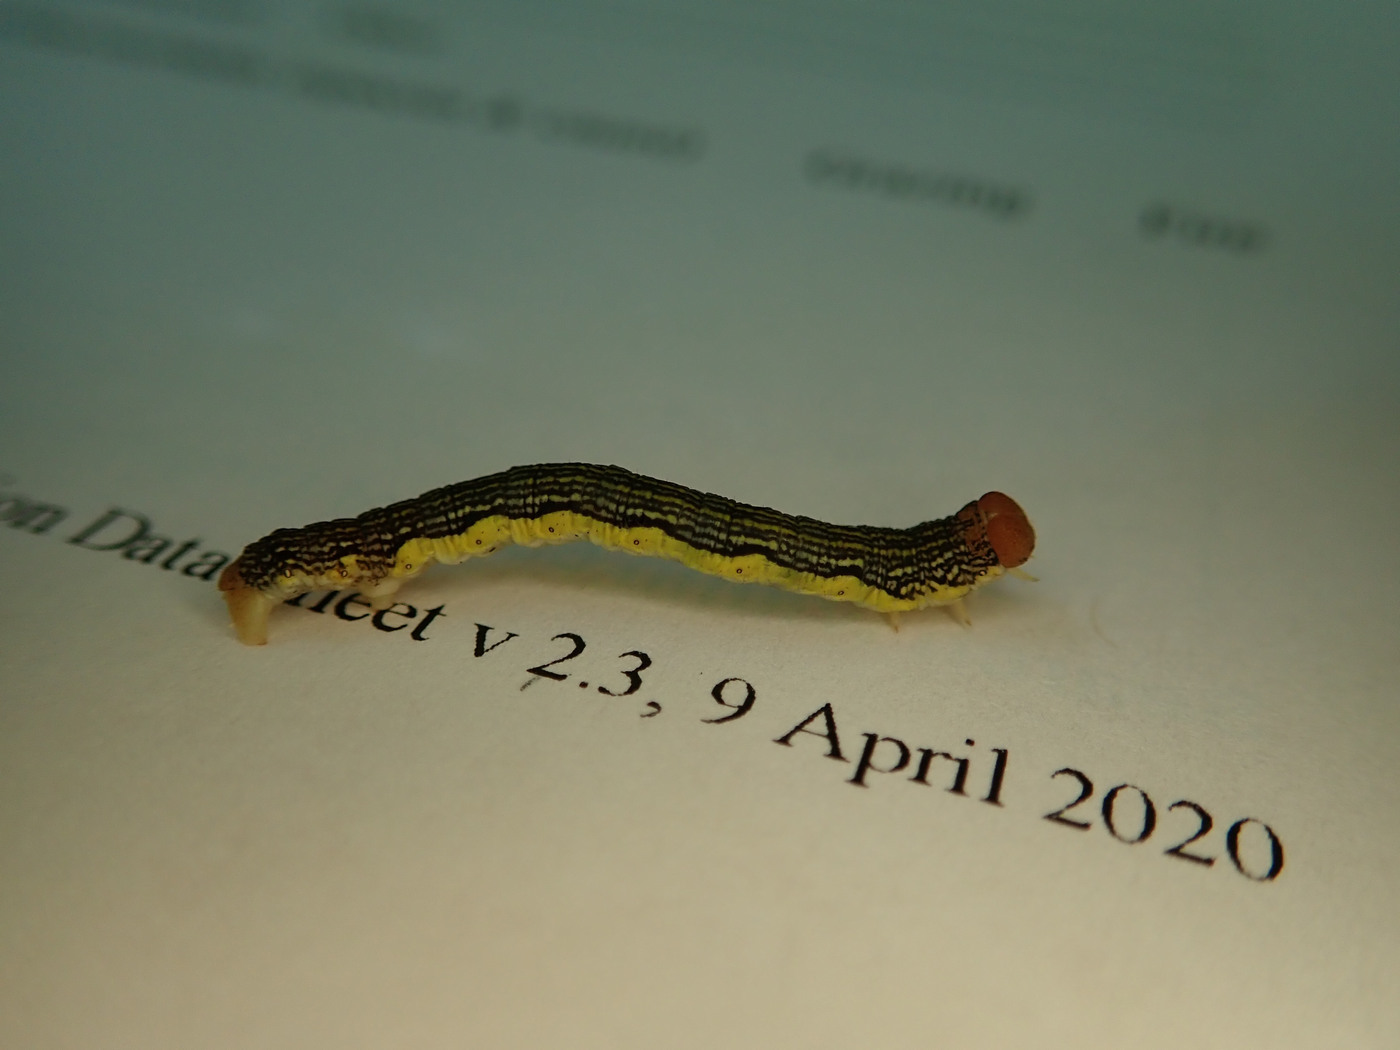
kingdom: Animalia
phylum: Arthropoda
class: Insecta
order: Lepidoptera
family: Geometridae
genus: Erannis
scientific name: Erannis tiliaria
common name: Linden looper
